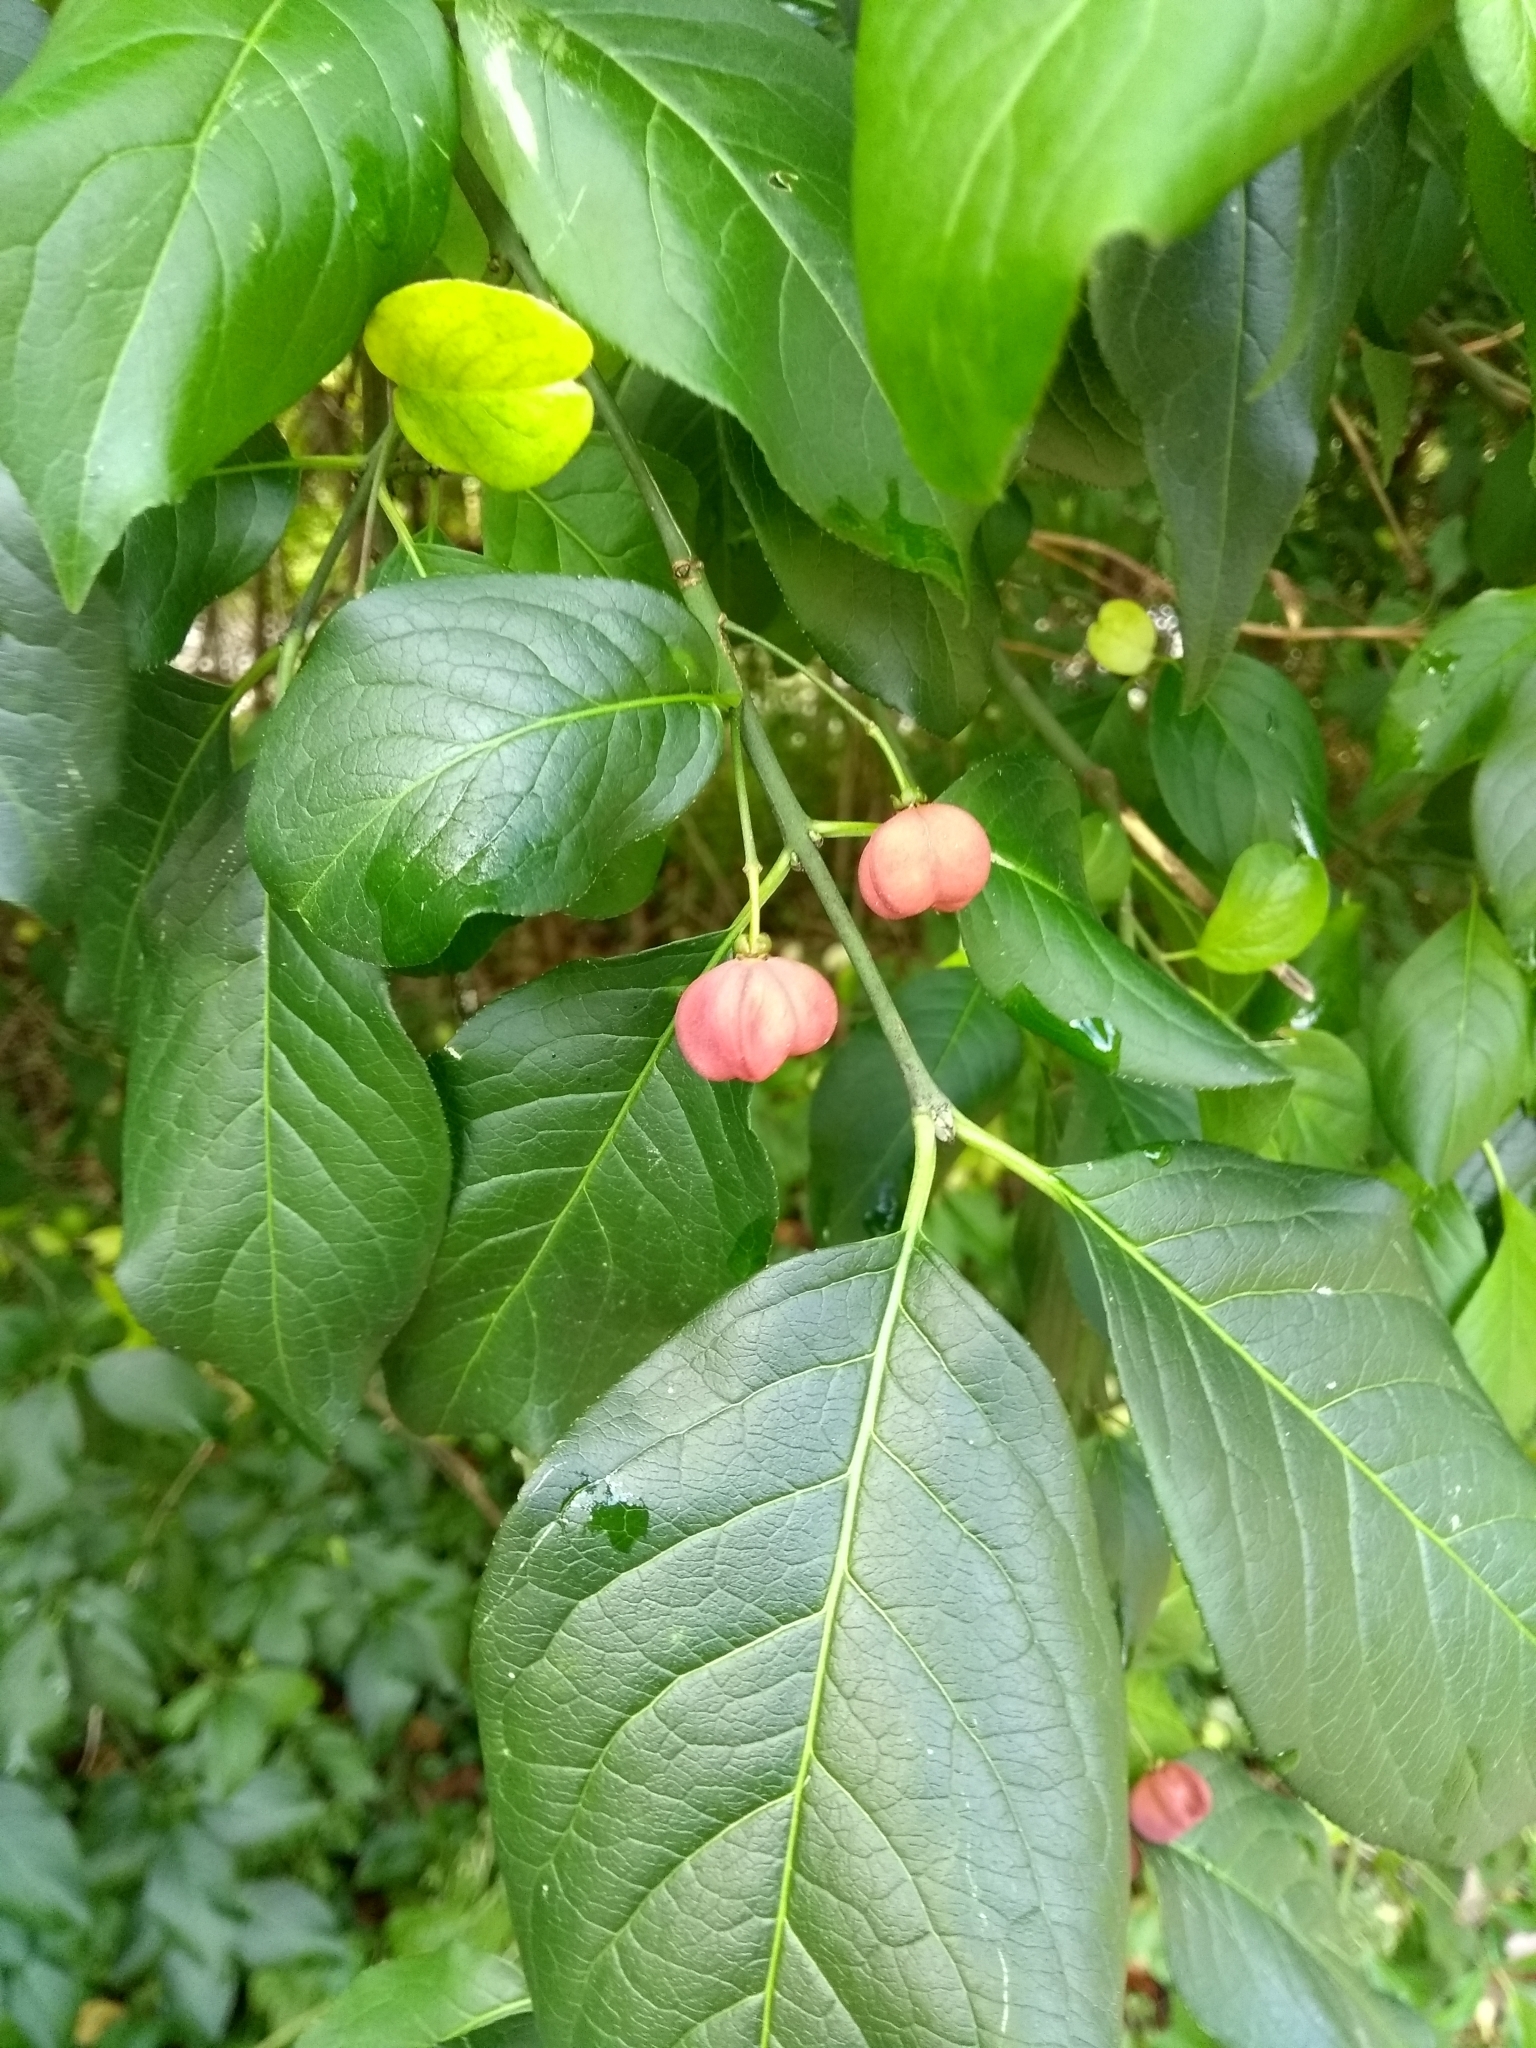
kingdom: Plantae
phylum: Tracheophyta
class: Magnoliopsida
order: Celastrales
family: Celastraceae
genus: Euonymus
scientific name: Euonymus europaeus
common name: Spindle
